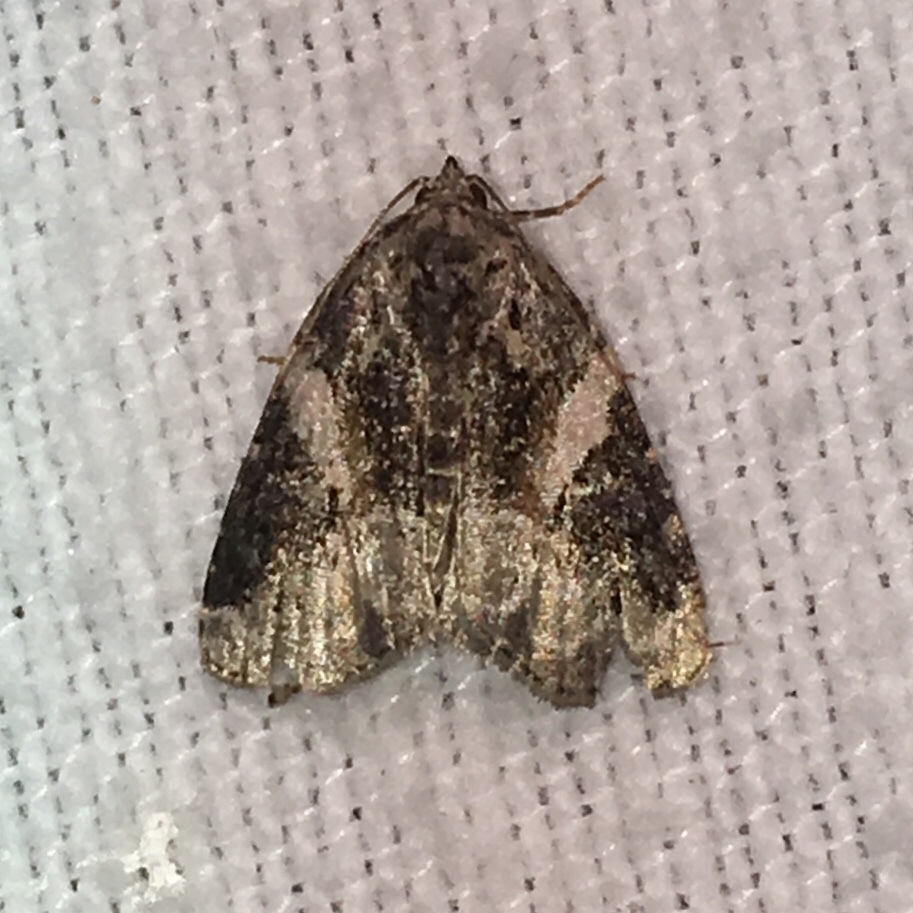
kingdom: Animalia
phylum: Arthropoda
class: Insecta
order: Lepidoptera
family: Noctuidae
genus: Pseudeustrotia
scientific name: Pseudeustrotia carneola
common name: Pink-barred lithacodia moth
